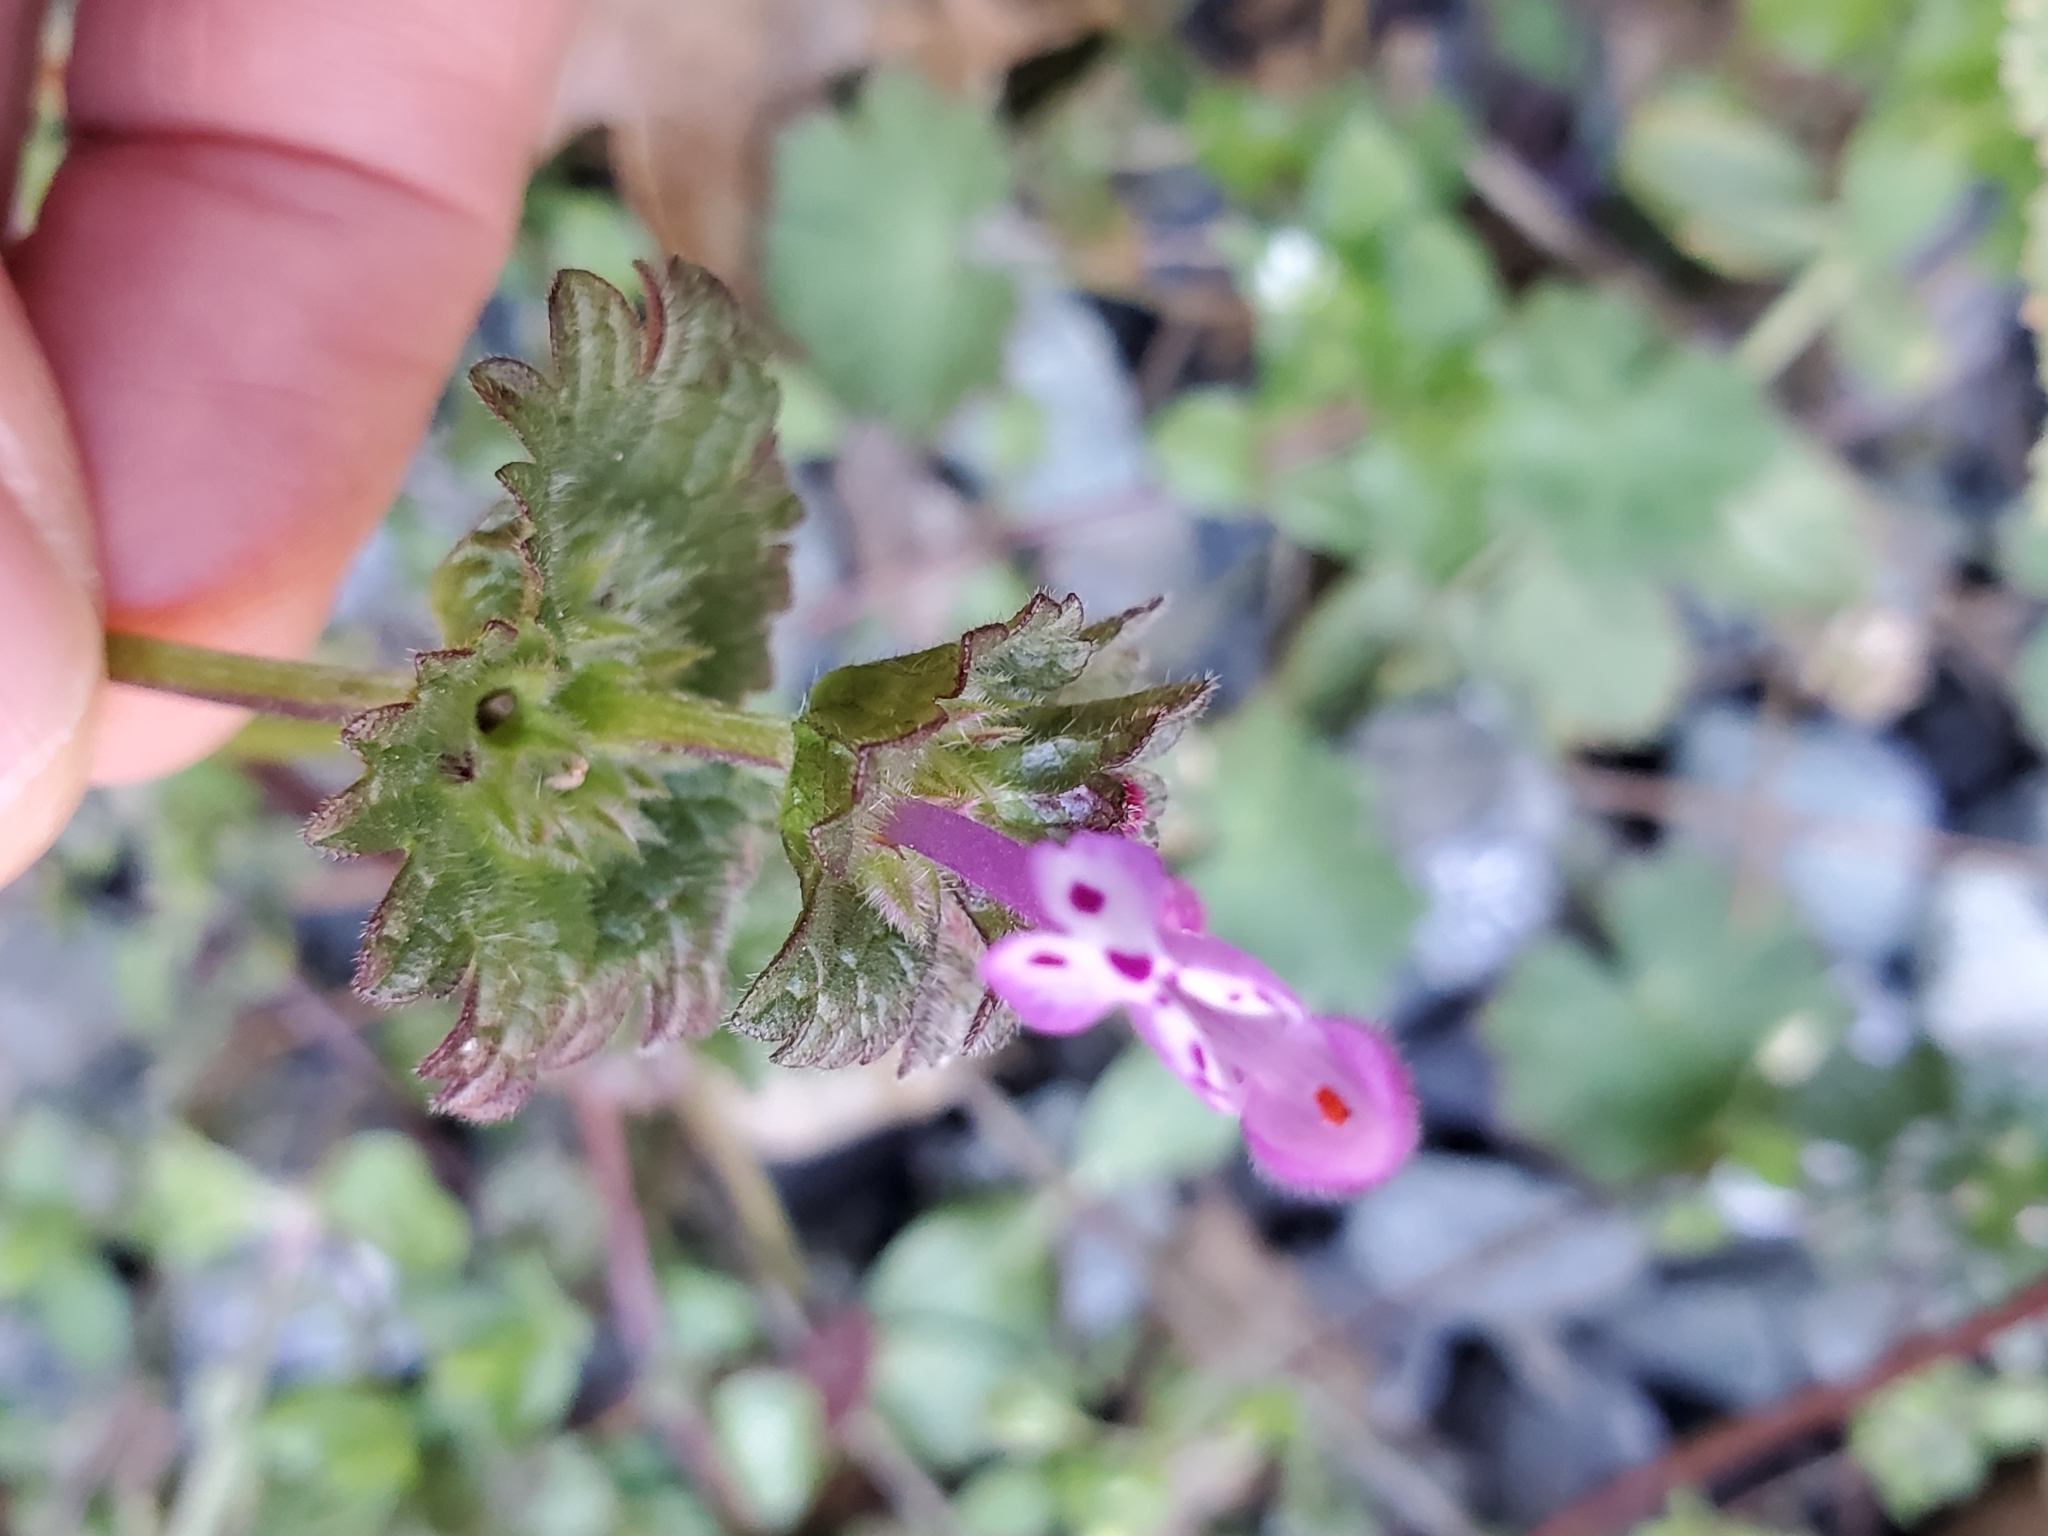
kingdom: Plantae
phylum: Tracheophyta
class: Magnoliopsida
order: Lamiales
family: Lamiaceae
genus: Lamium
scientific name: Lamium amplexicaule
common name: Henbit dead-nettle
